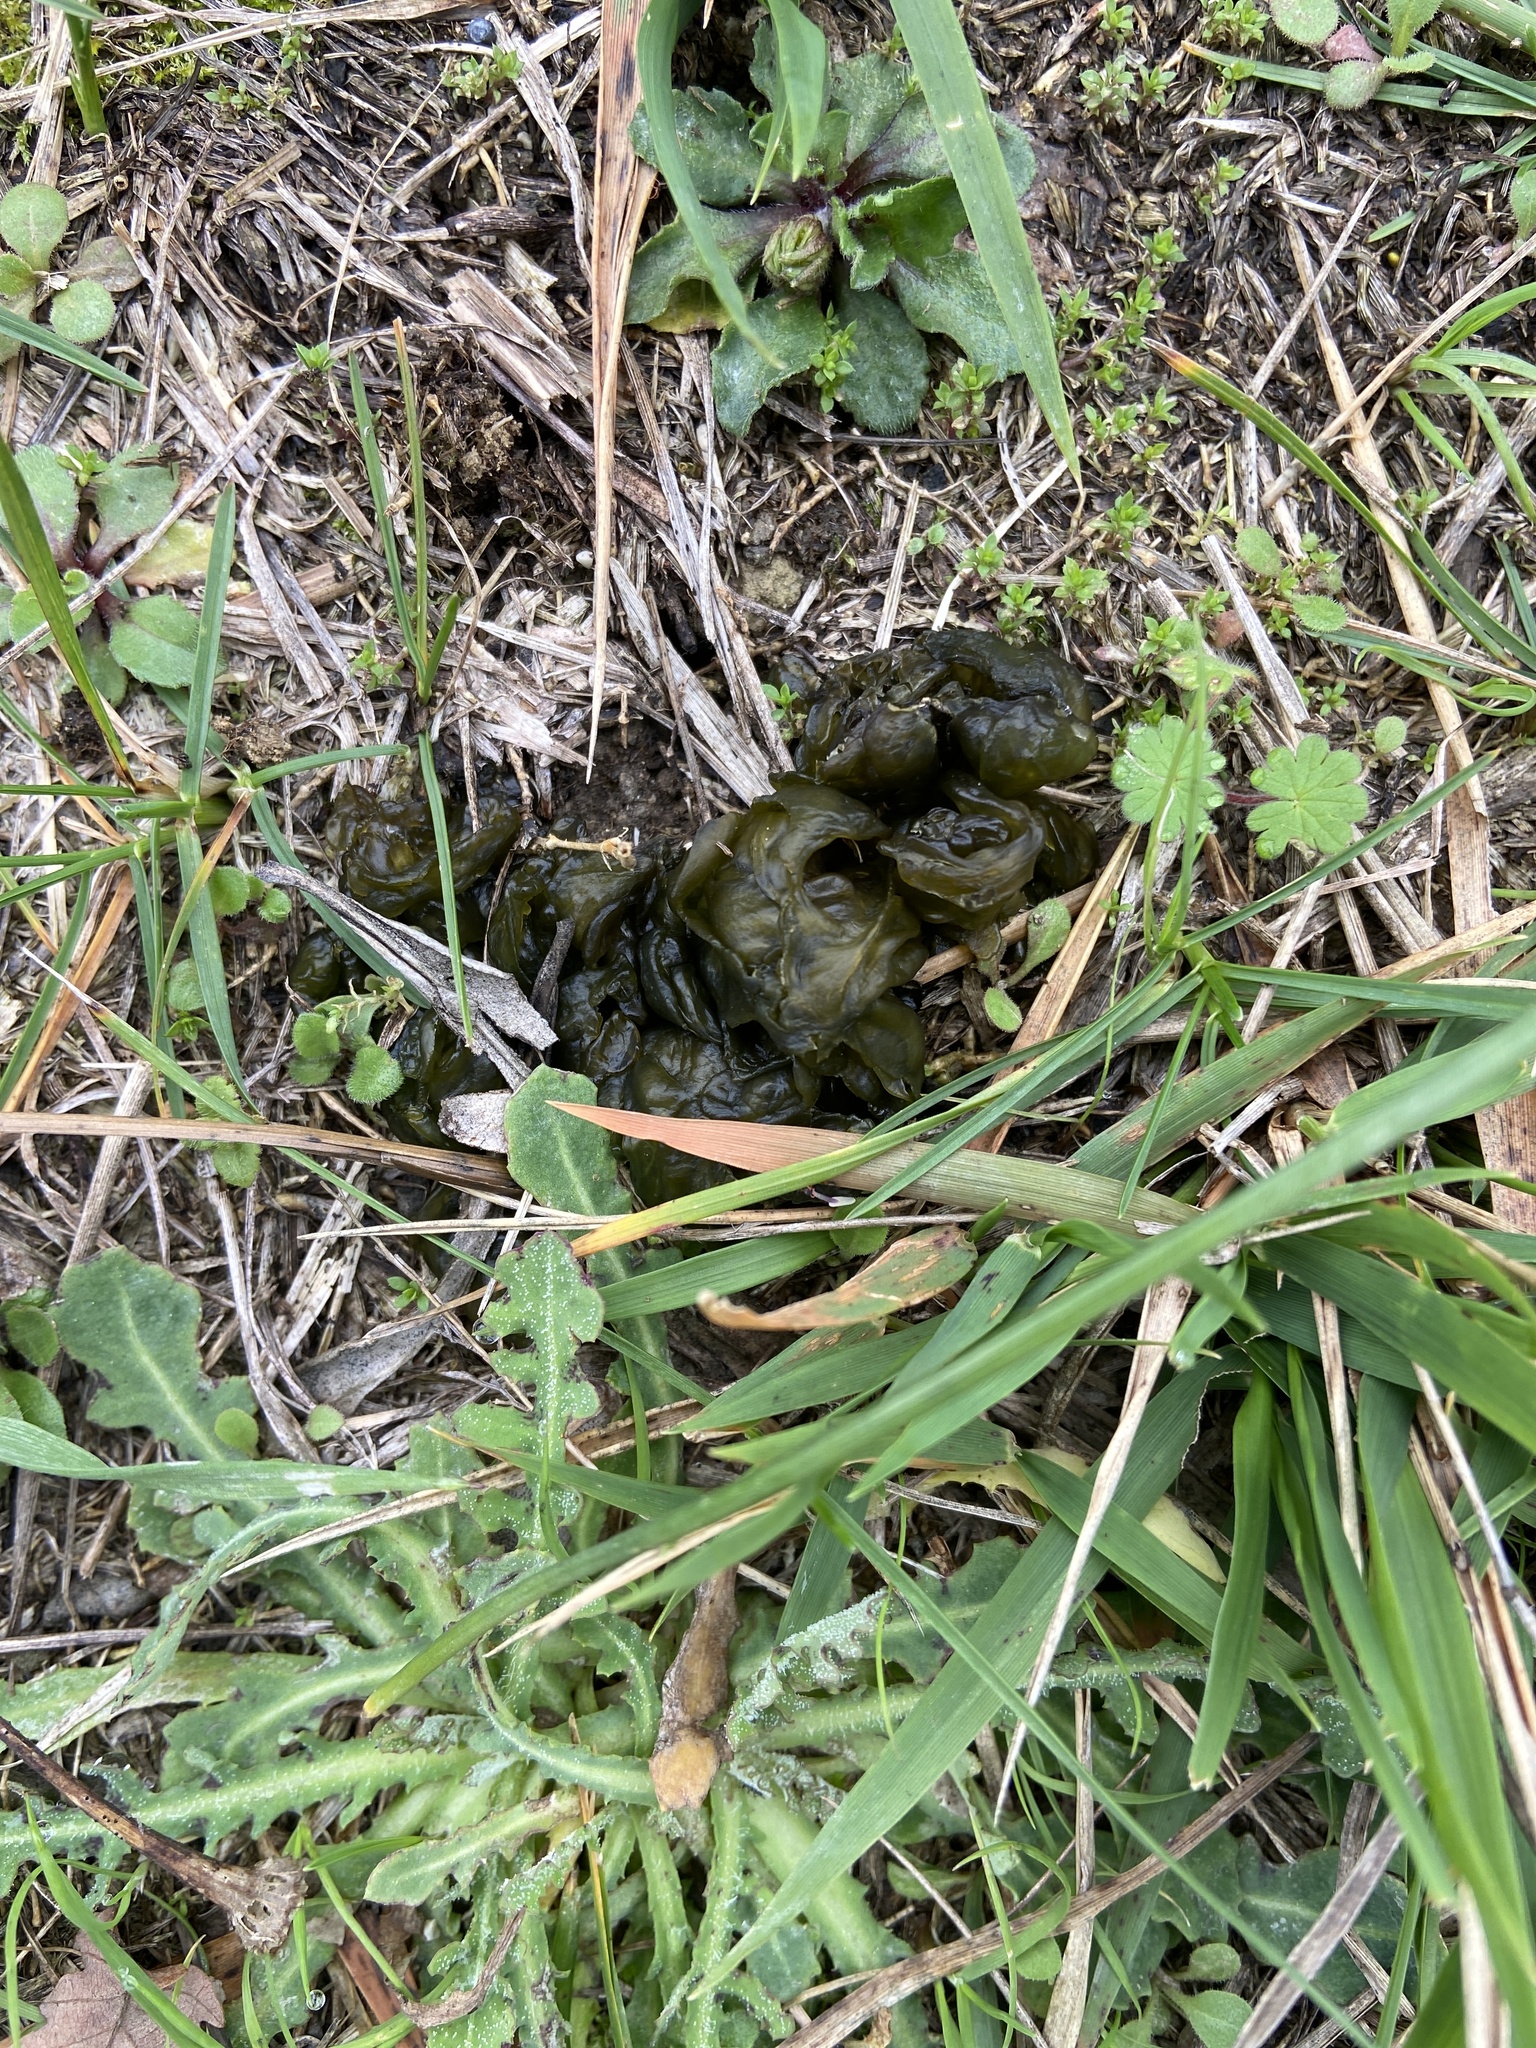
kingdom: Bacteria
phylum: Cyanobacteria
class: Cyanobacteriia
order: Cyanobacteriales
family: Nostocaceae
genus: Nostoc
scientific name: Nostoc commune
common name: Star jelly
